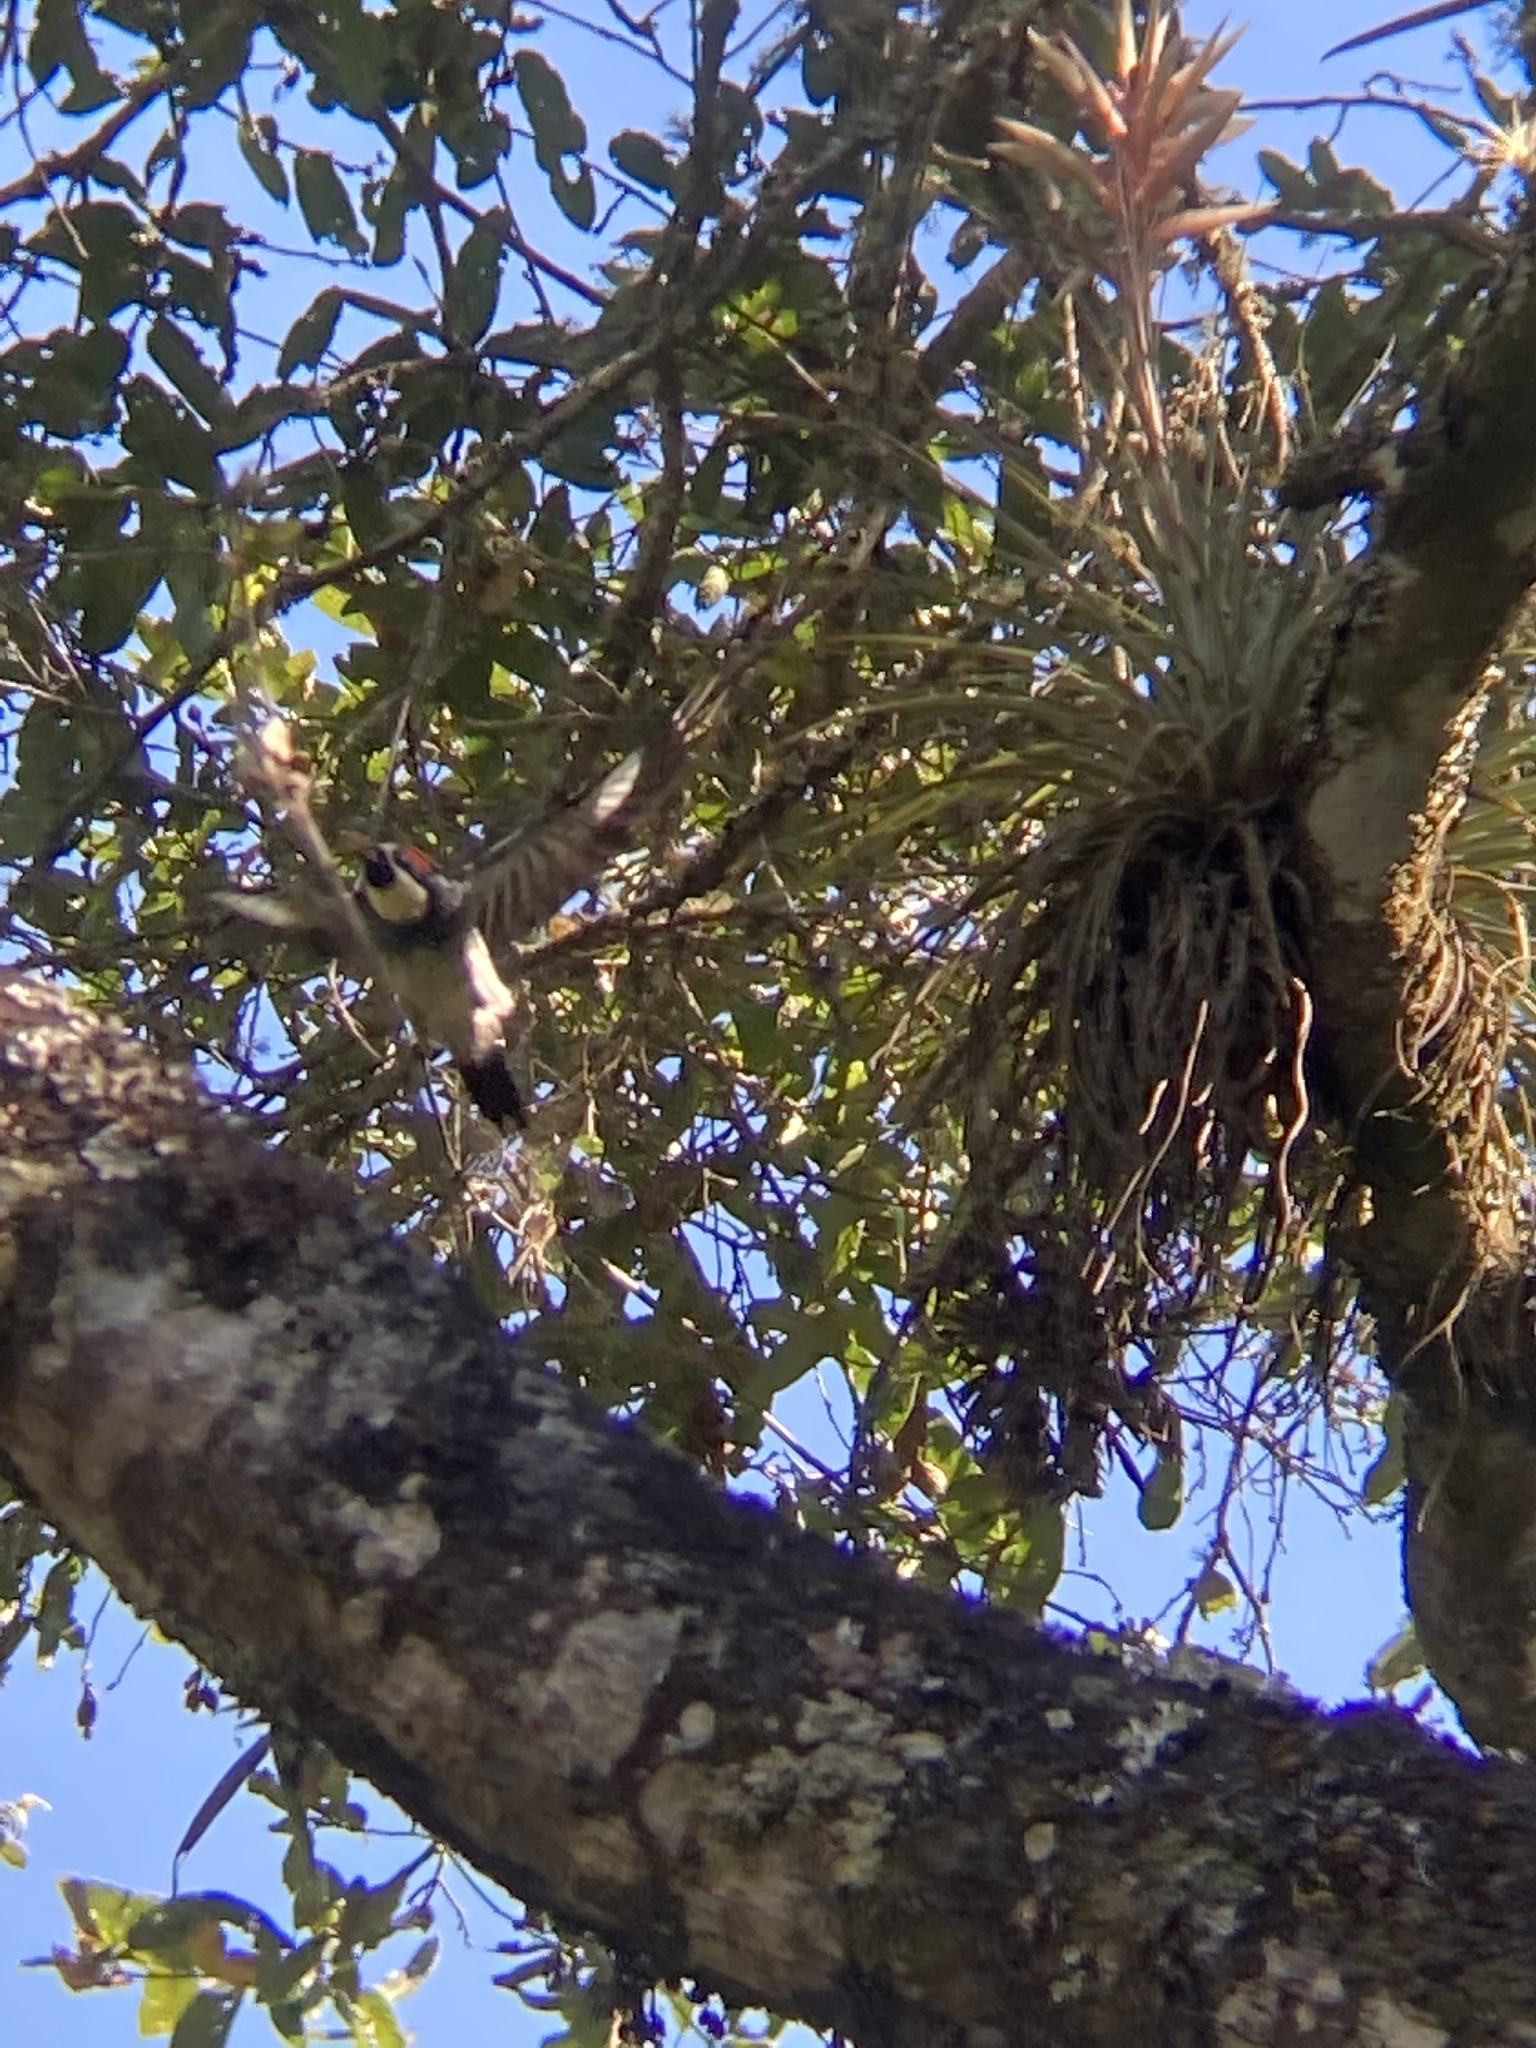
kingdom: Animalia
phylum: Chordata
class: Aves
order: Piciformes
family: Picidae
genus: Melanerpes
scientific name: Melanerpes formicivorus
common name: Acorn woodpecker
